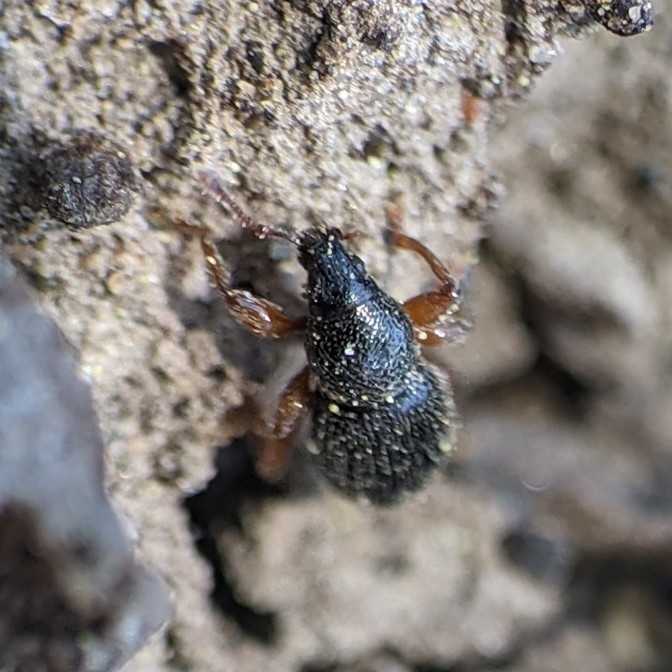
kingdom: Animalia
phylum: Arthropoda
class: Insecta
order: Coleoptera
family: Curculionidae
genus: Exomias
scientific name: Exomias pellucidus
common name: Hairy spider weevil
